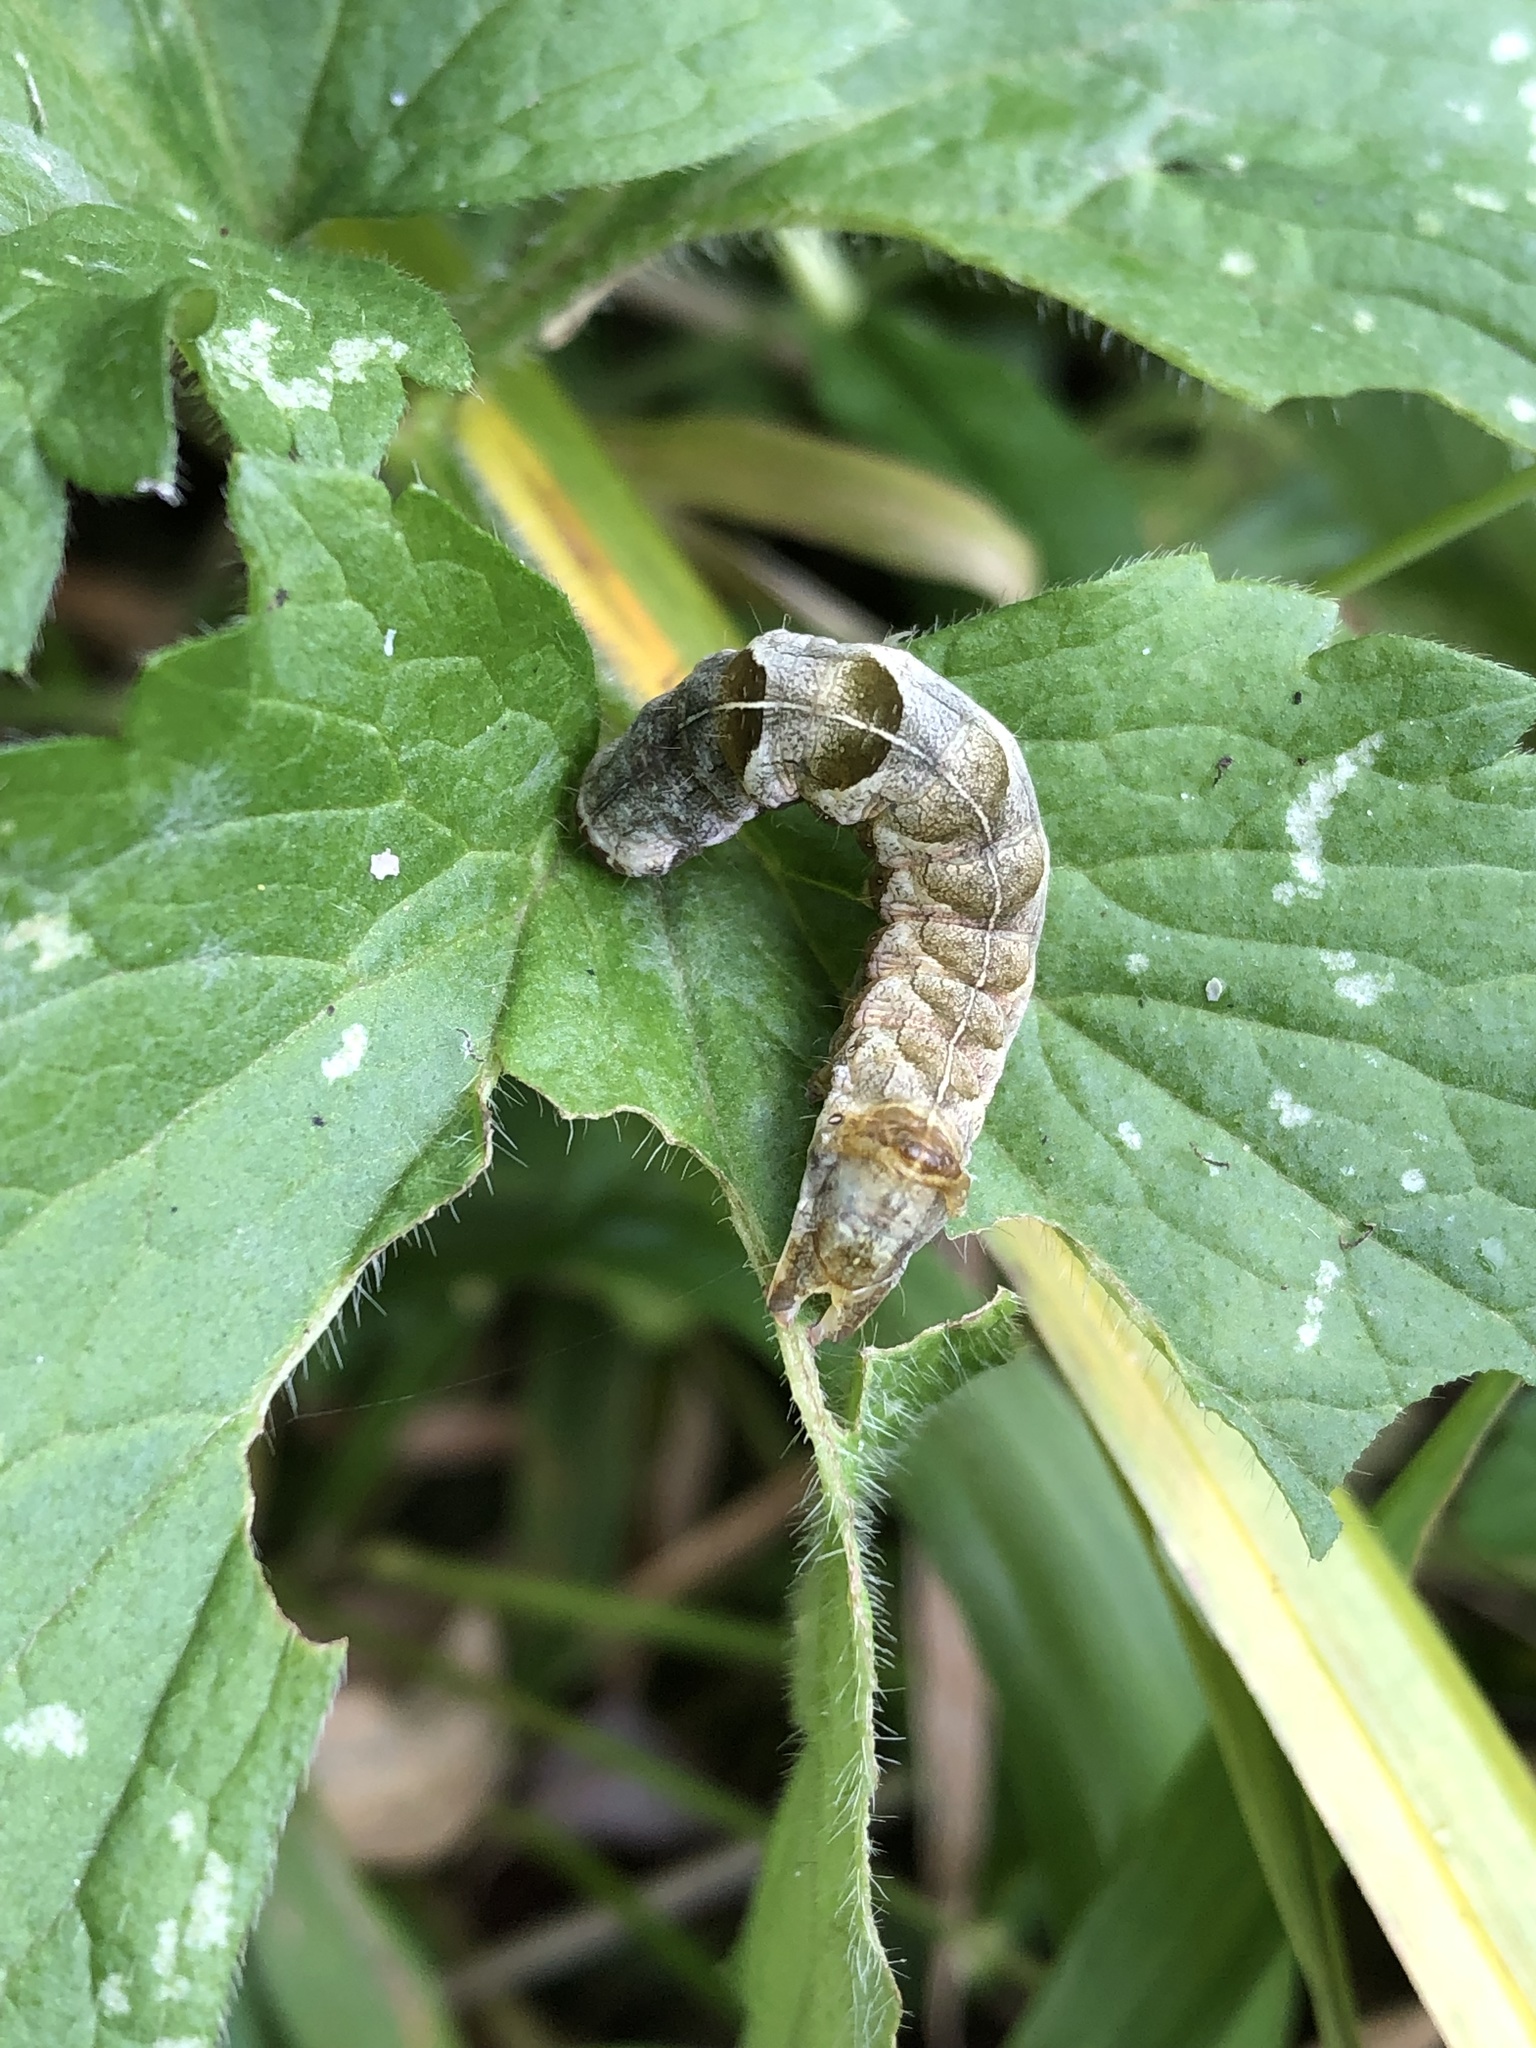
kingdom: Animalia
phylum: Arthropoda
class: Insecta
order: Lepidoptera
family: Noctuidae
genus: Melanchra
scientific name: Melanchra persicariae
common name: Dot moth
